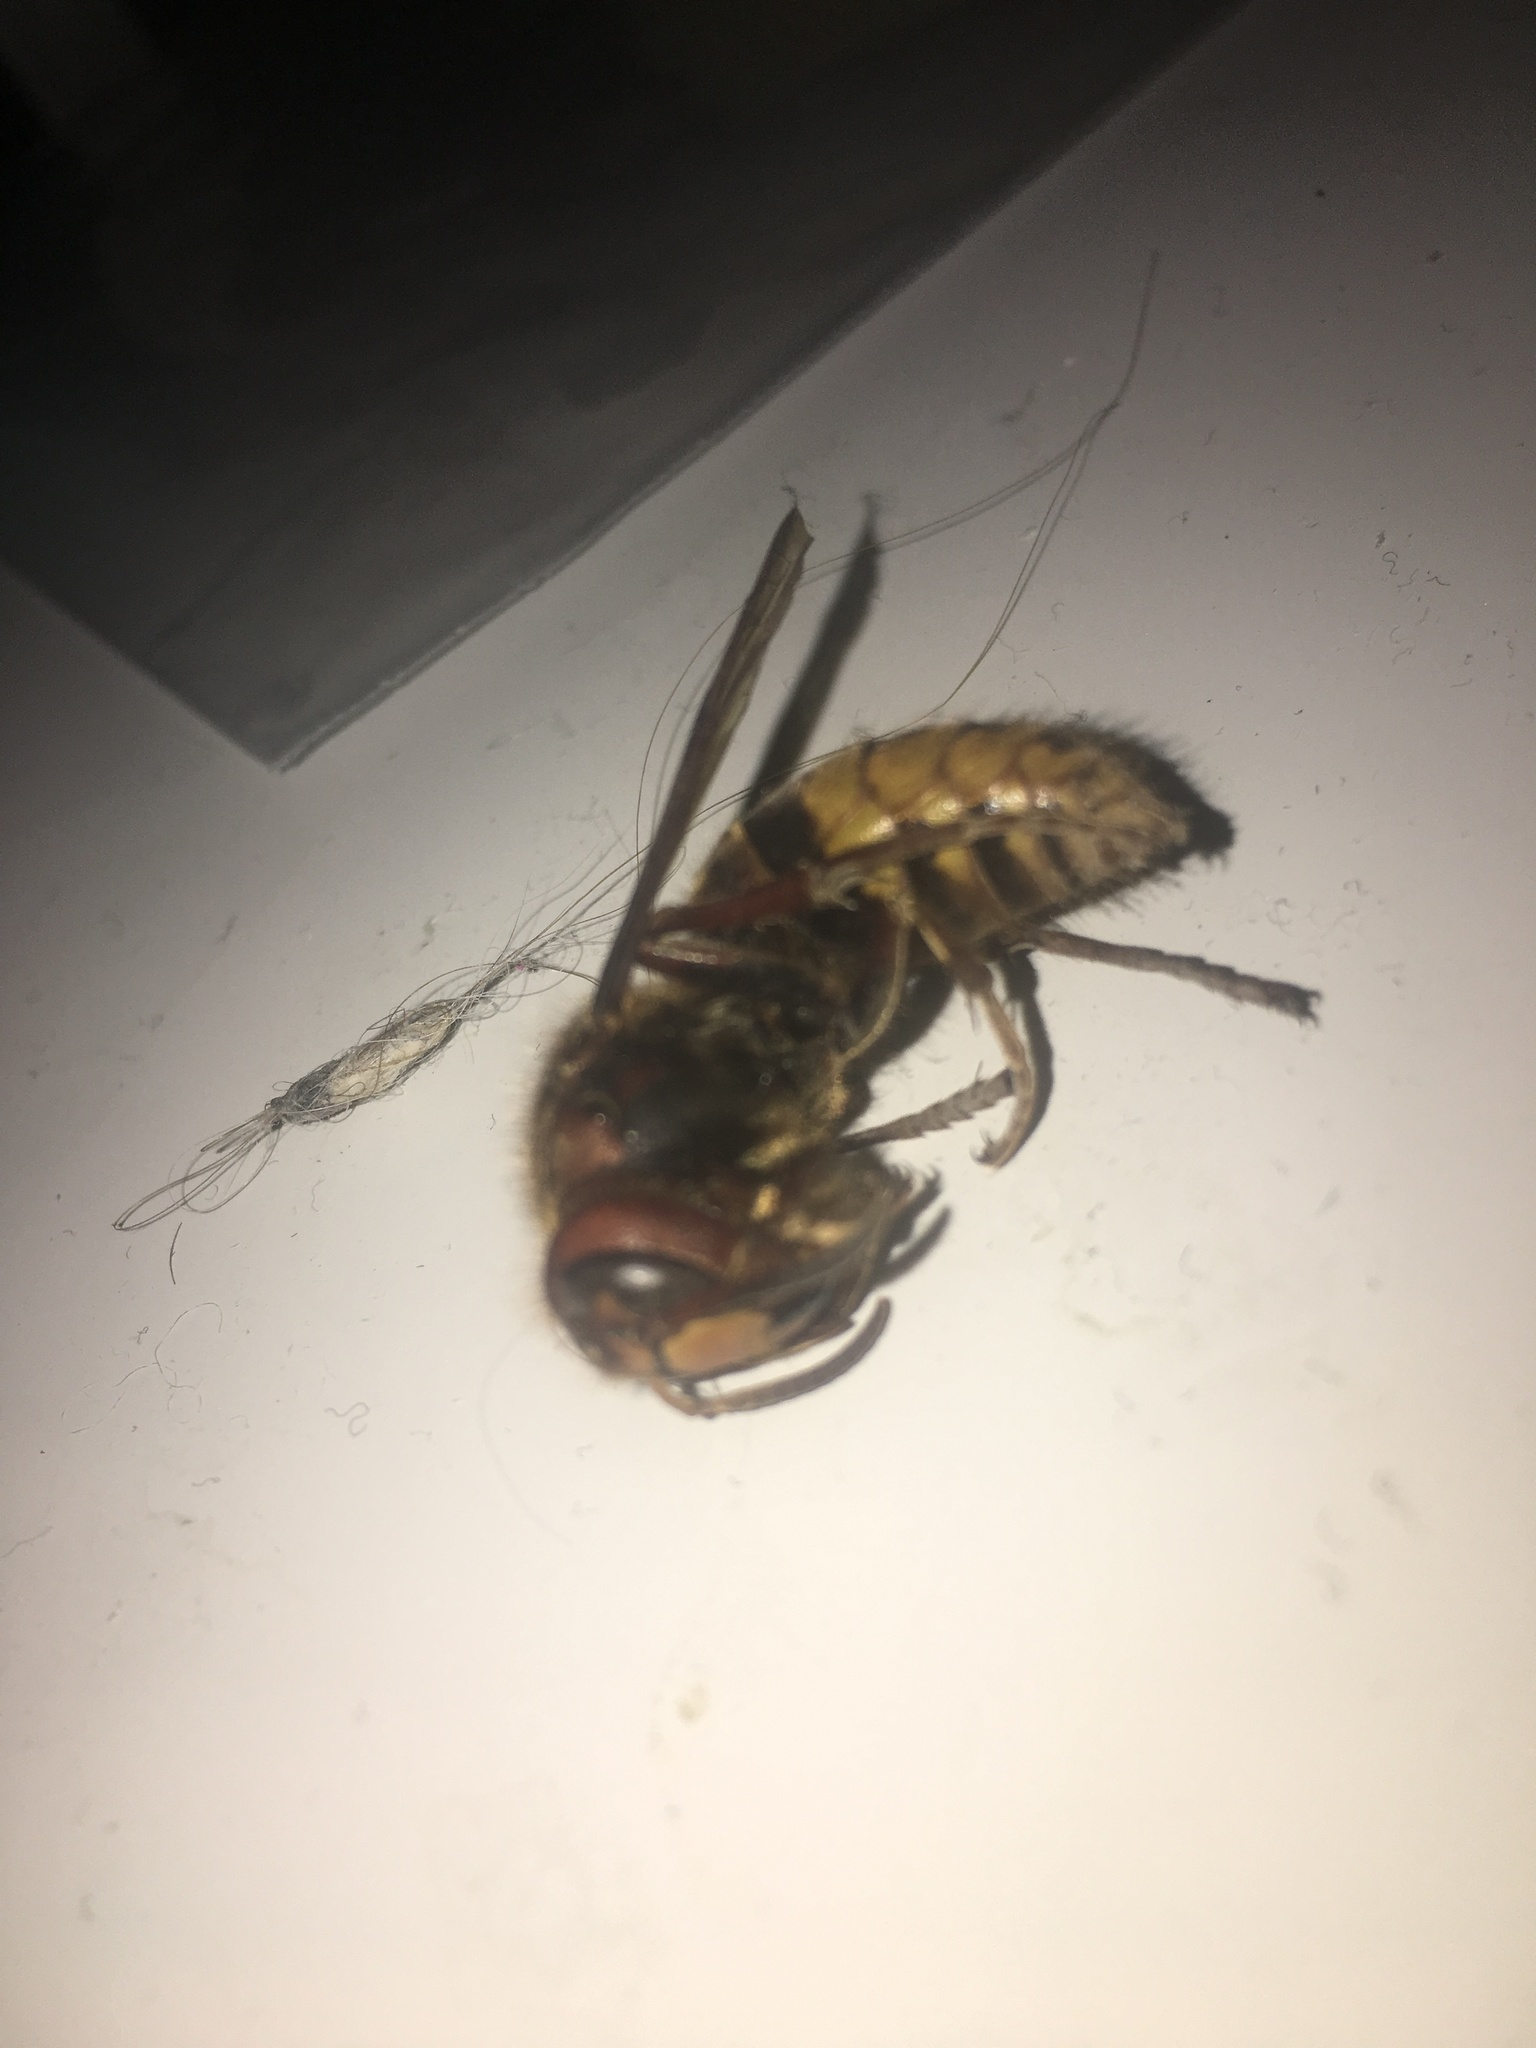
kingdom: Animalia
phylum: Arthropoda
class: Insecta
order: Hymenoptera
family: Vespidae
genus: Vespa
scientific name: Vespa crabro
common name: Hornet
